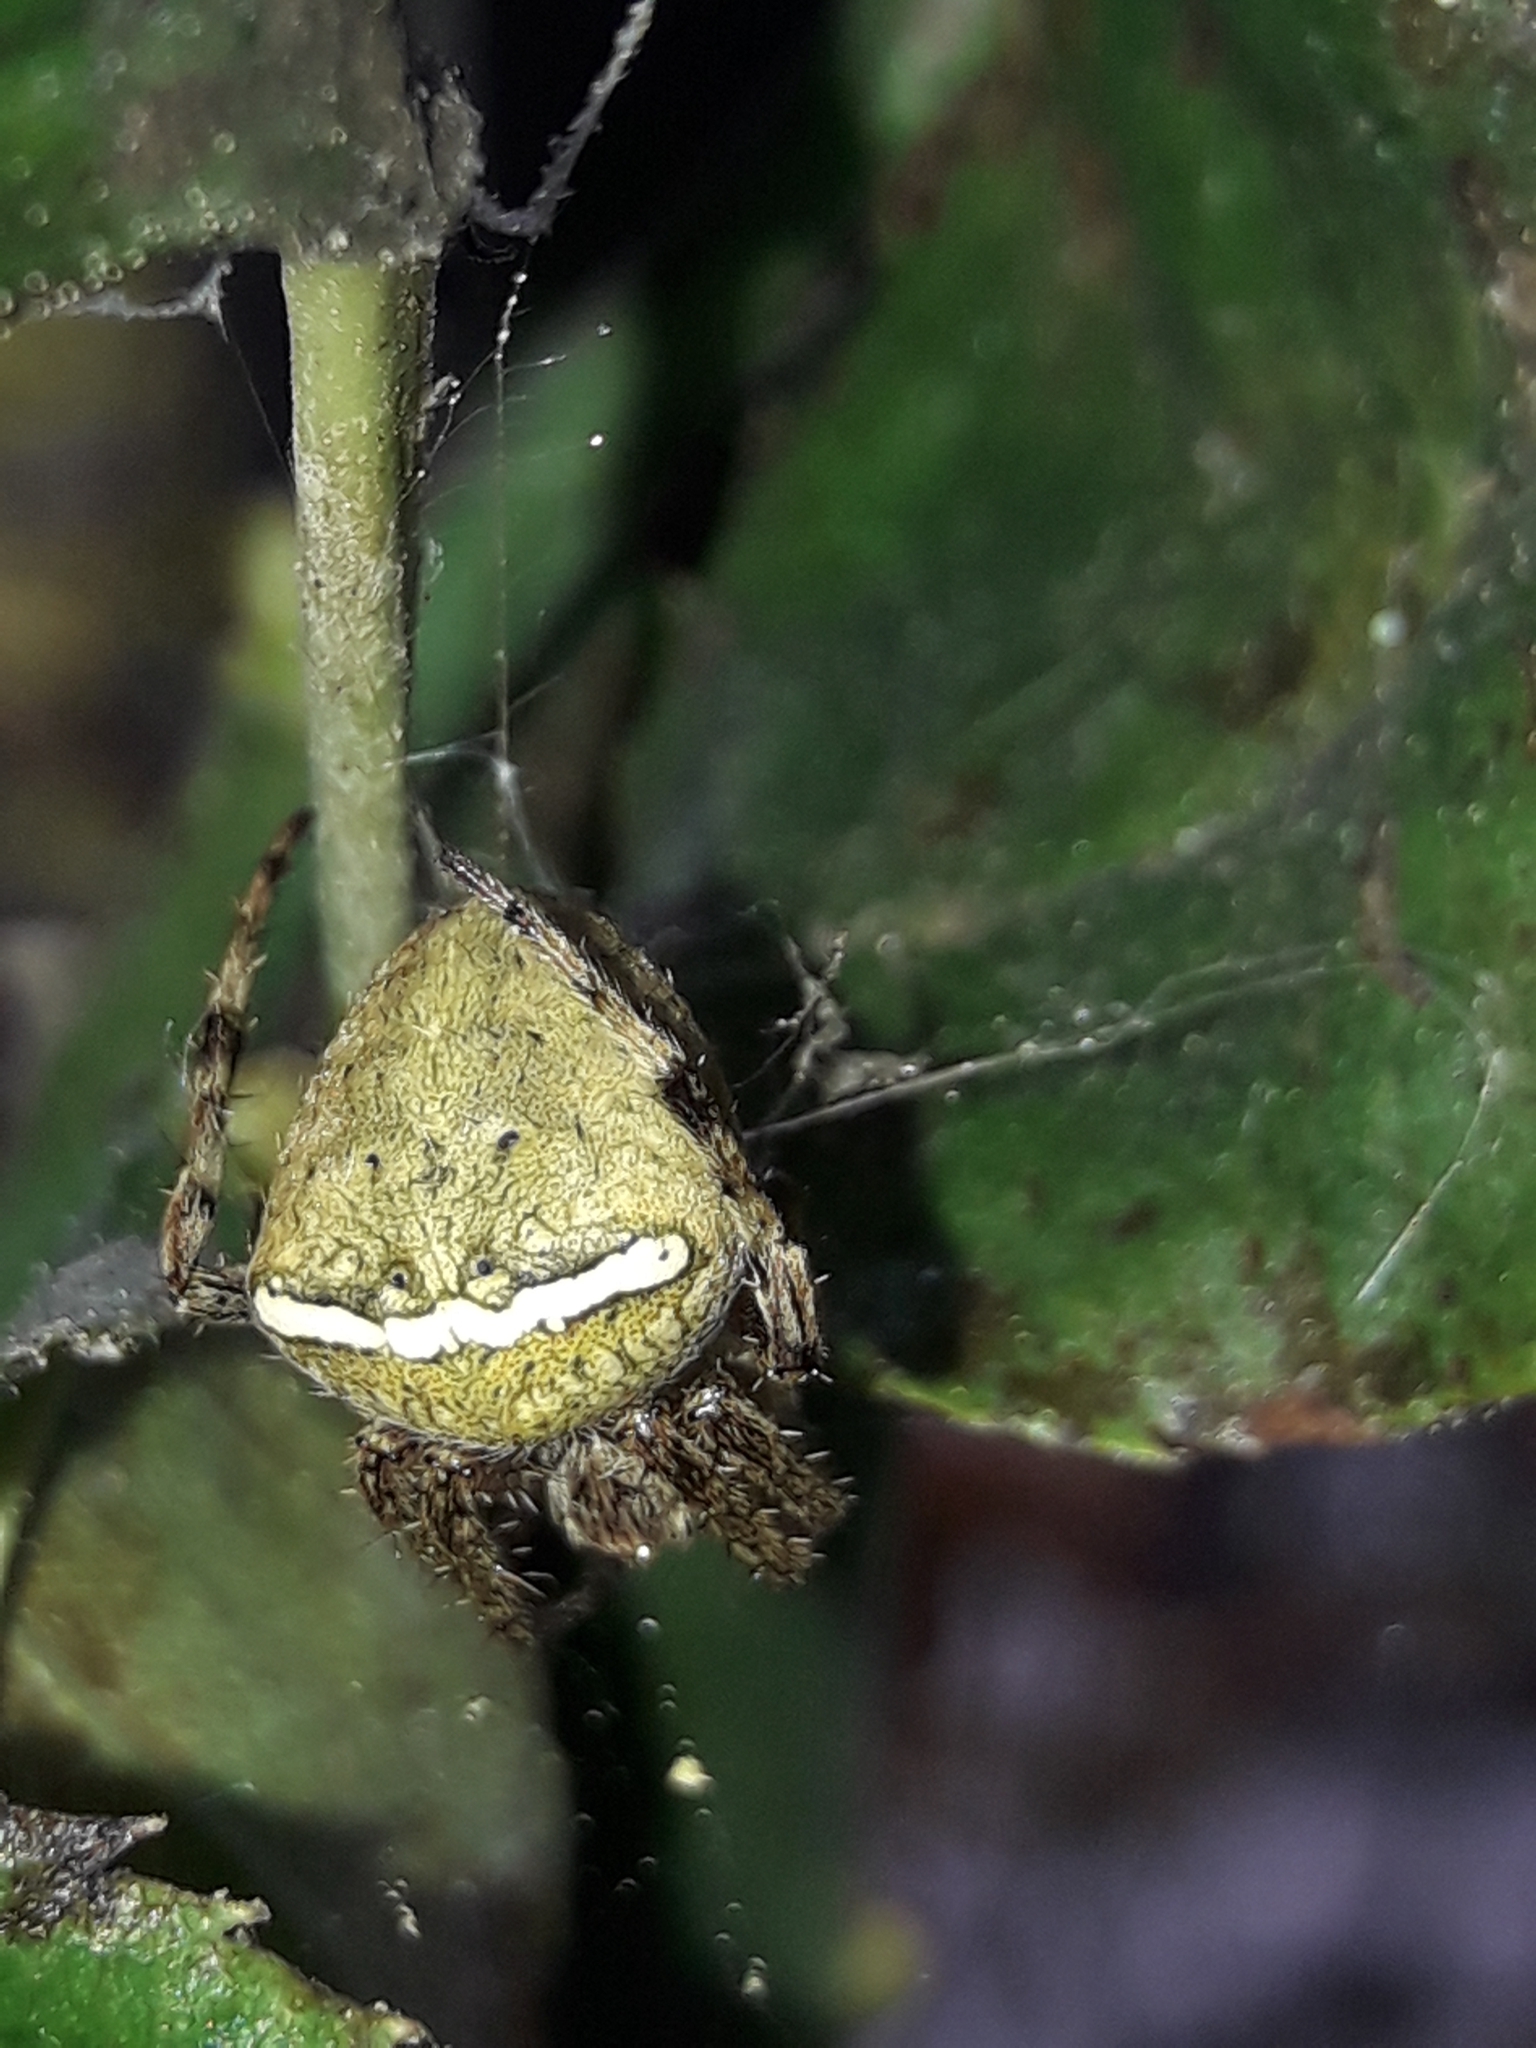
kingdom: Animalia
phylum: Arthropoda
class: Arachnida
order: Araneae
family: Araneidae
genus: Zealaranea
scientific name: Zealaranea crassa
